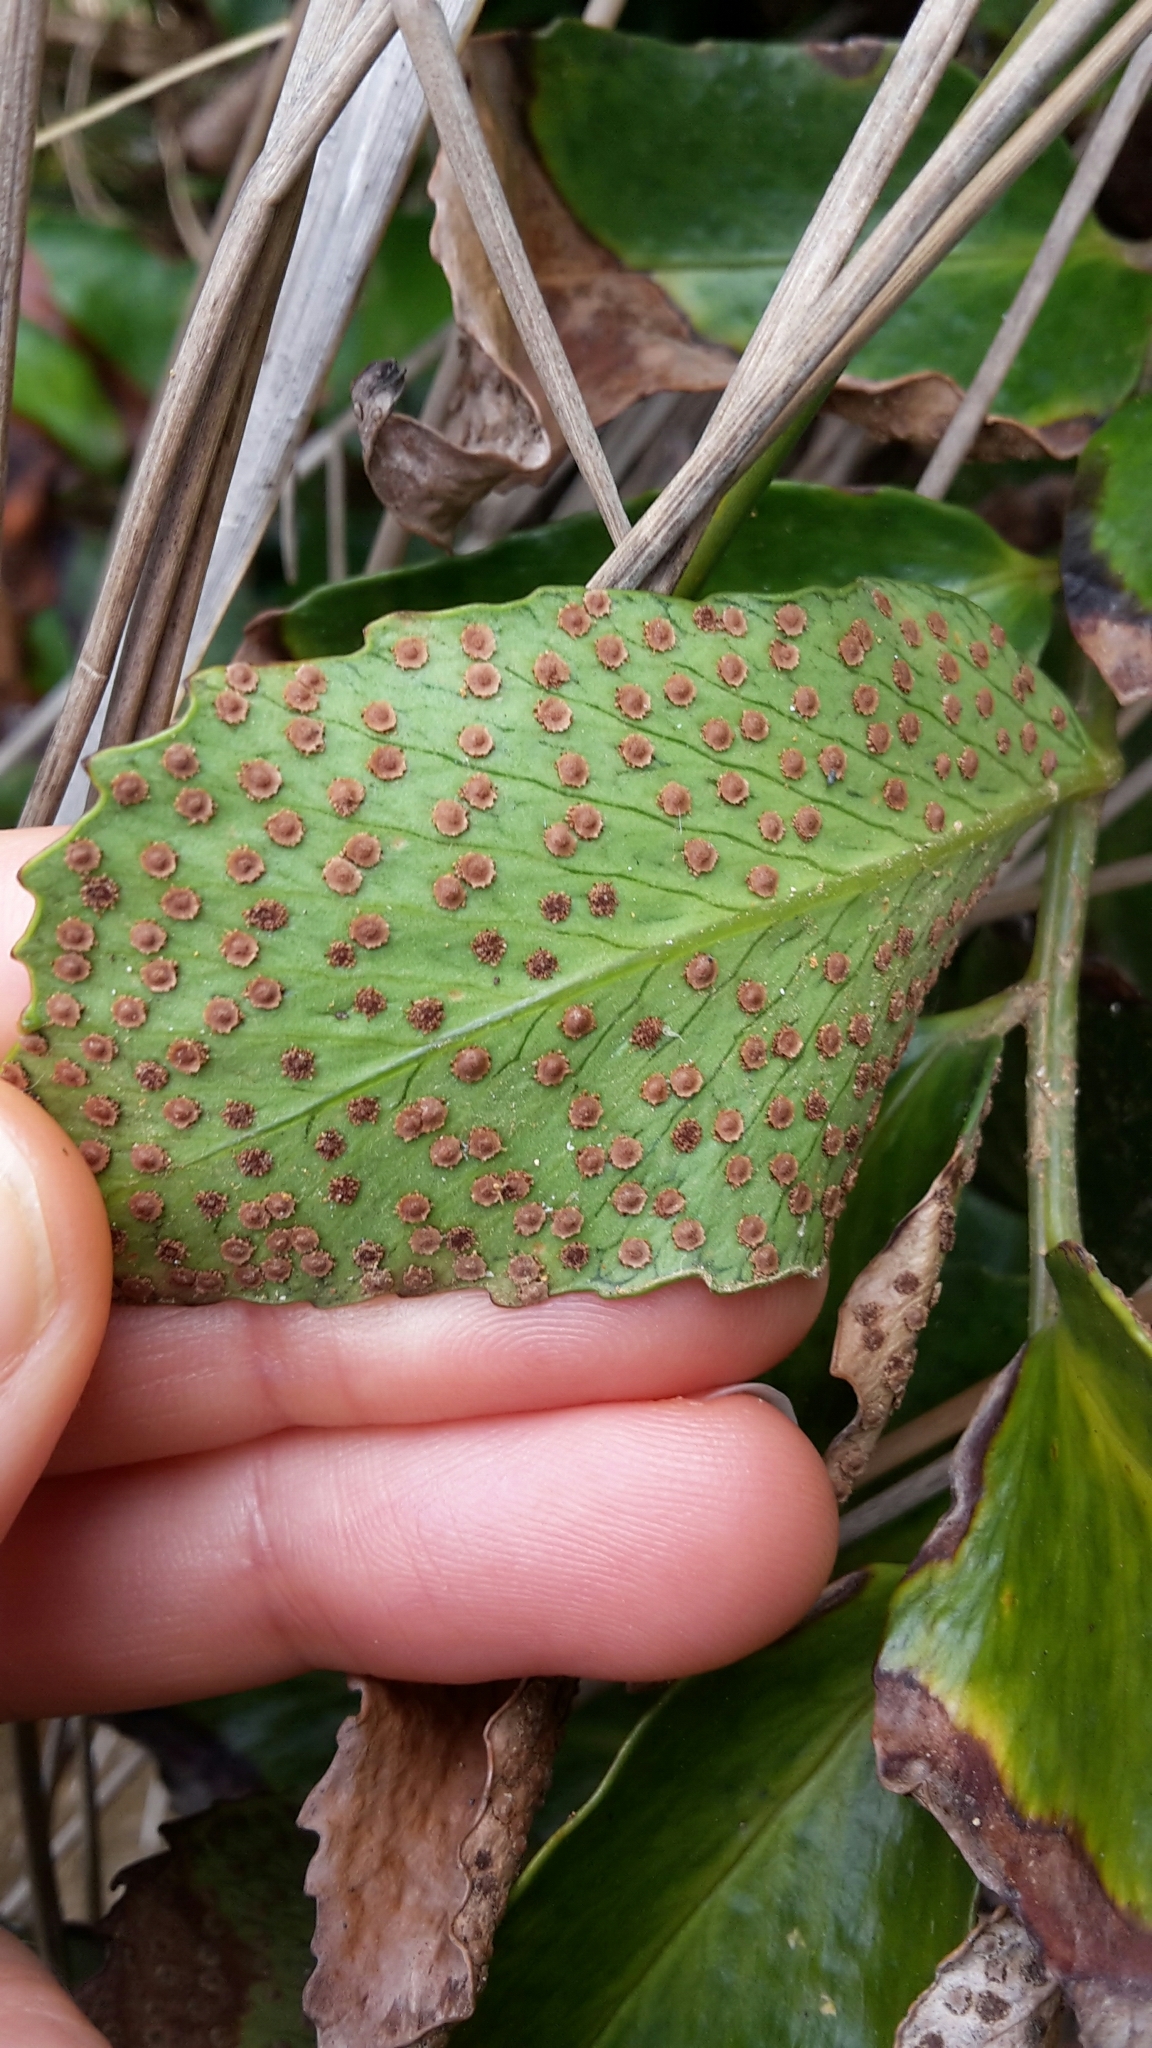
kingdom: Plantae
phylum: Tracheophyta
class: Polypodiopsida
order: Polypodiales
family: Dryopteridaceae
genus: Cyrtomium
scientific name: Cyrtomium falcatum
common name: House holly-fern
